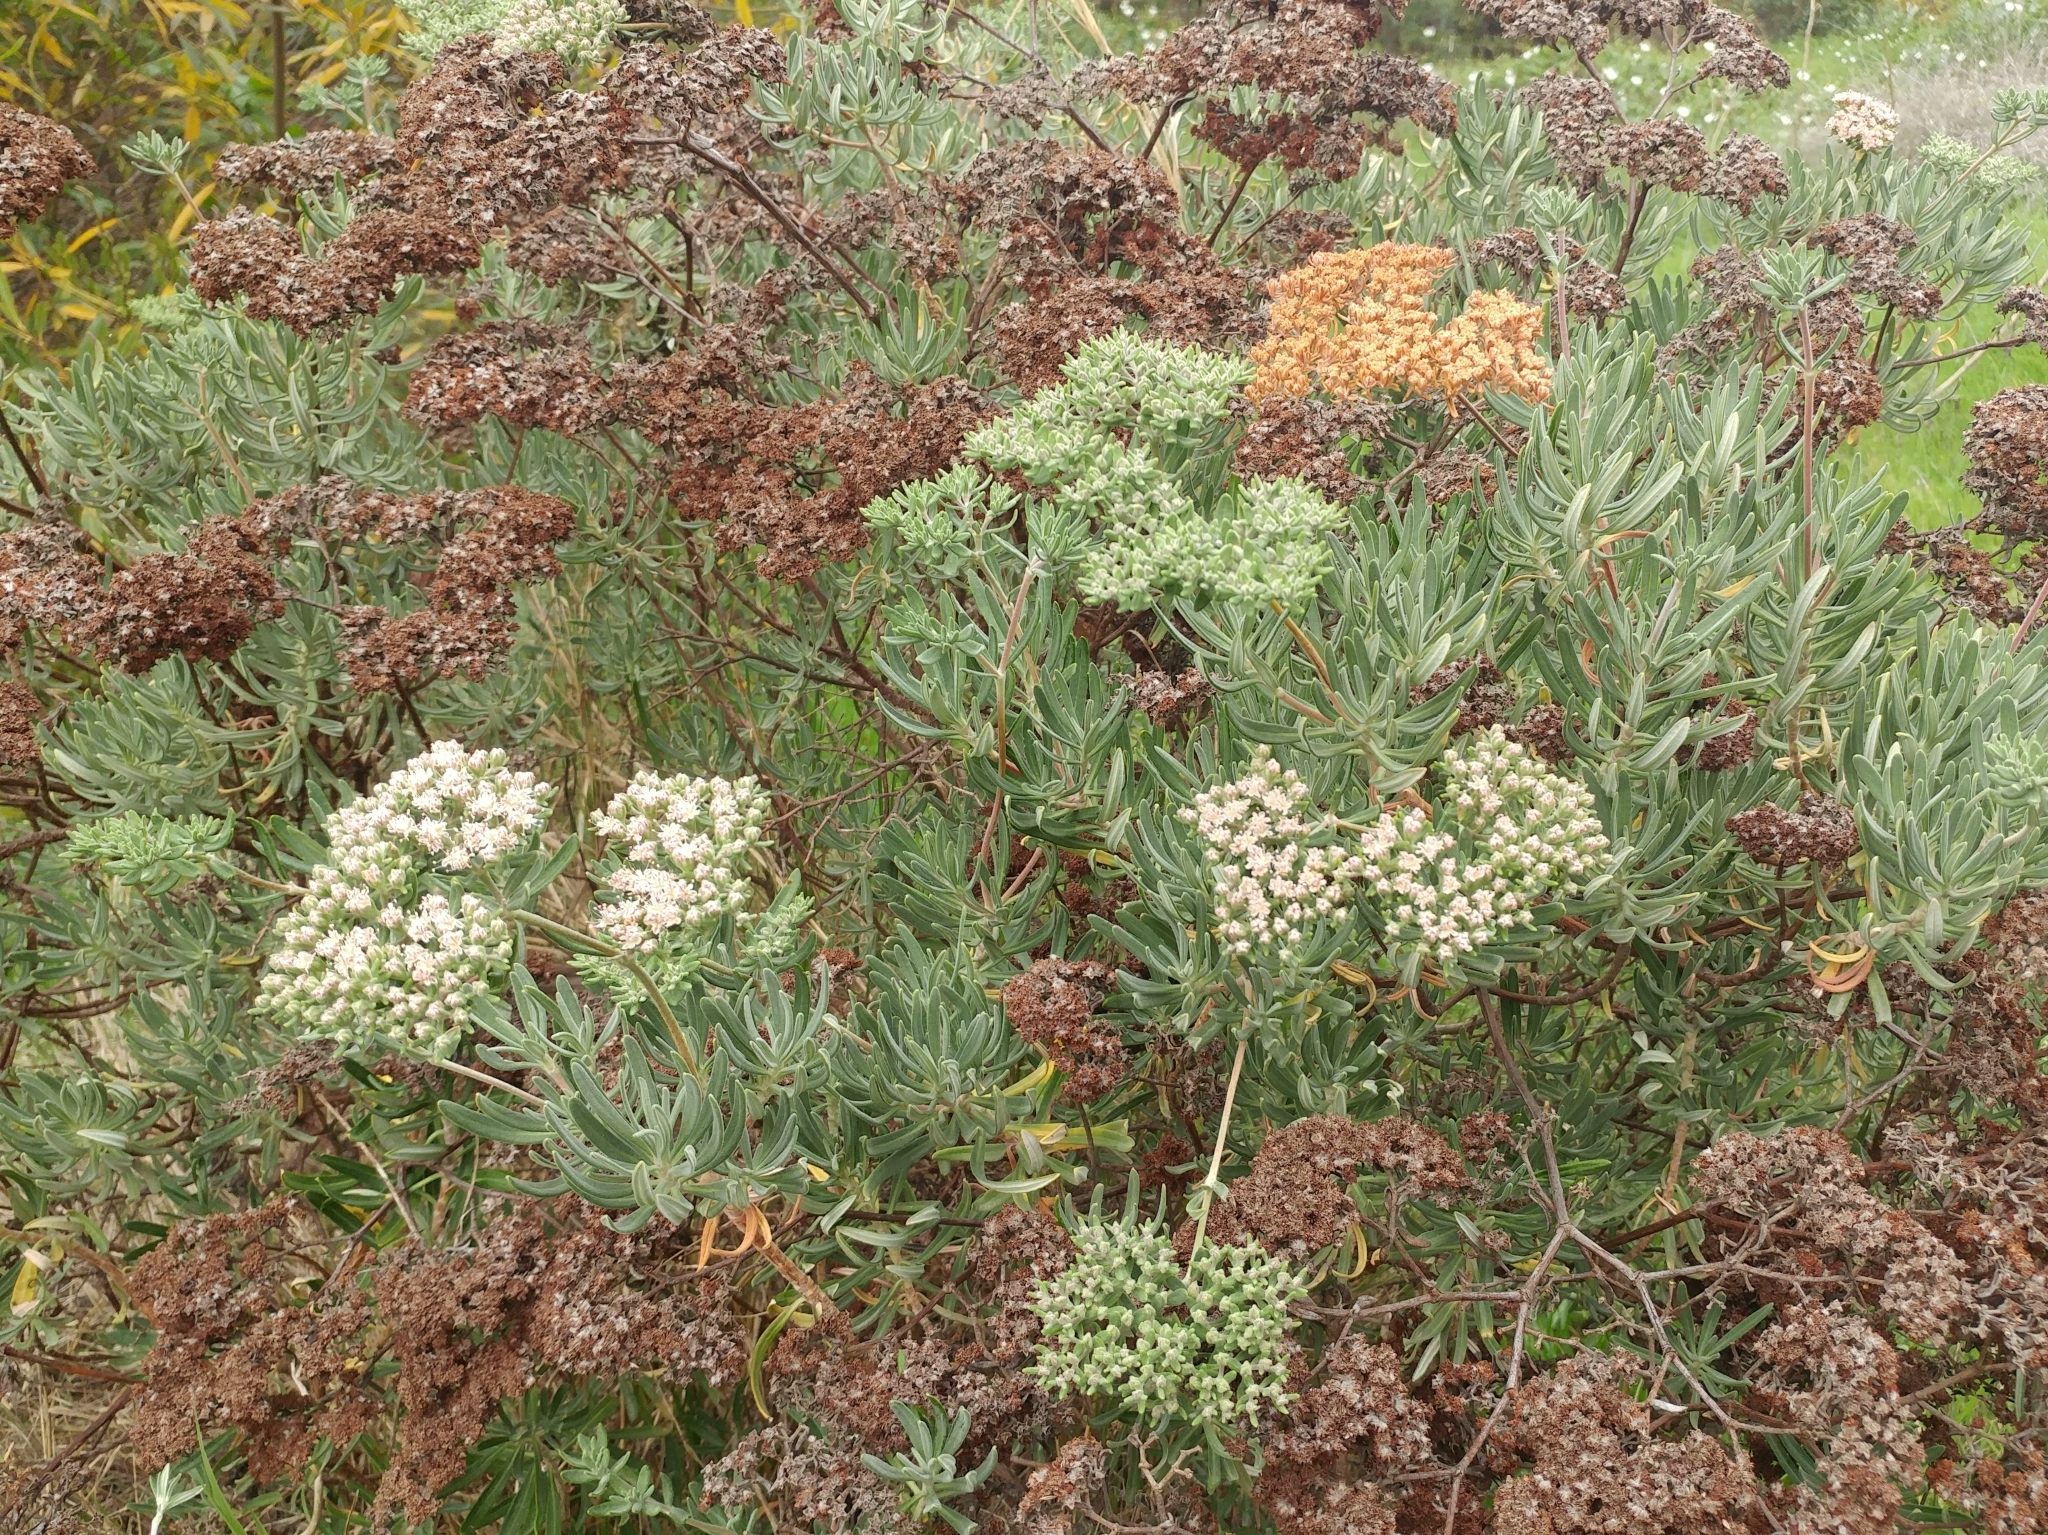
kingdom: Plantae
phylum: Tracheophyta
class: Magnoliopsida
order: Caryophyllales
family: Polygonaceae
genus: Eriogonum
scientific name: Eriogonum arborescens
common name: Island buckwheat
